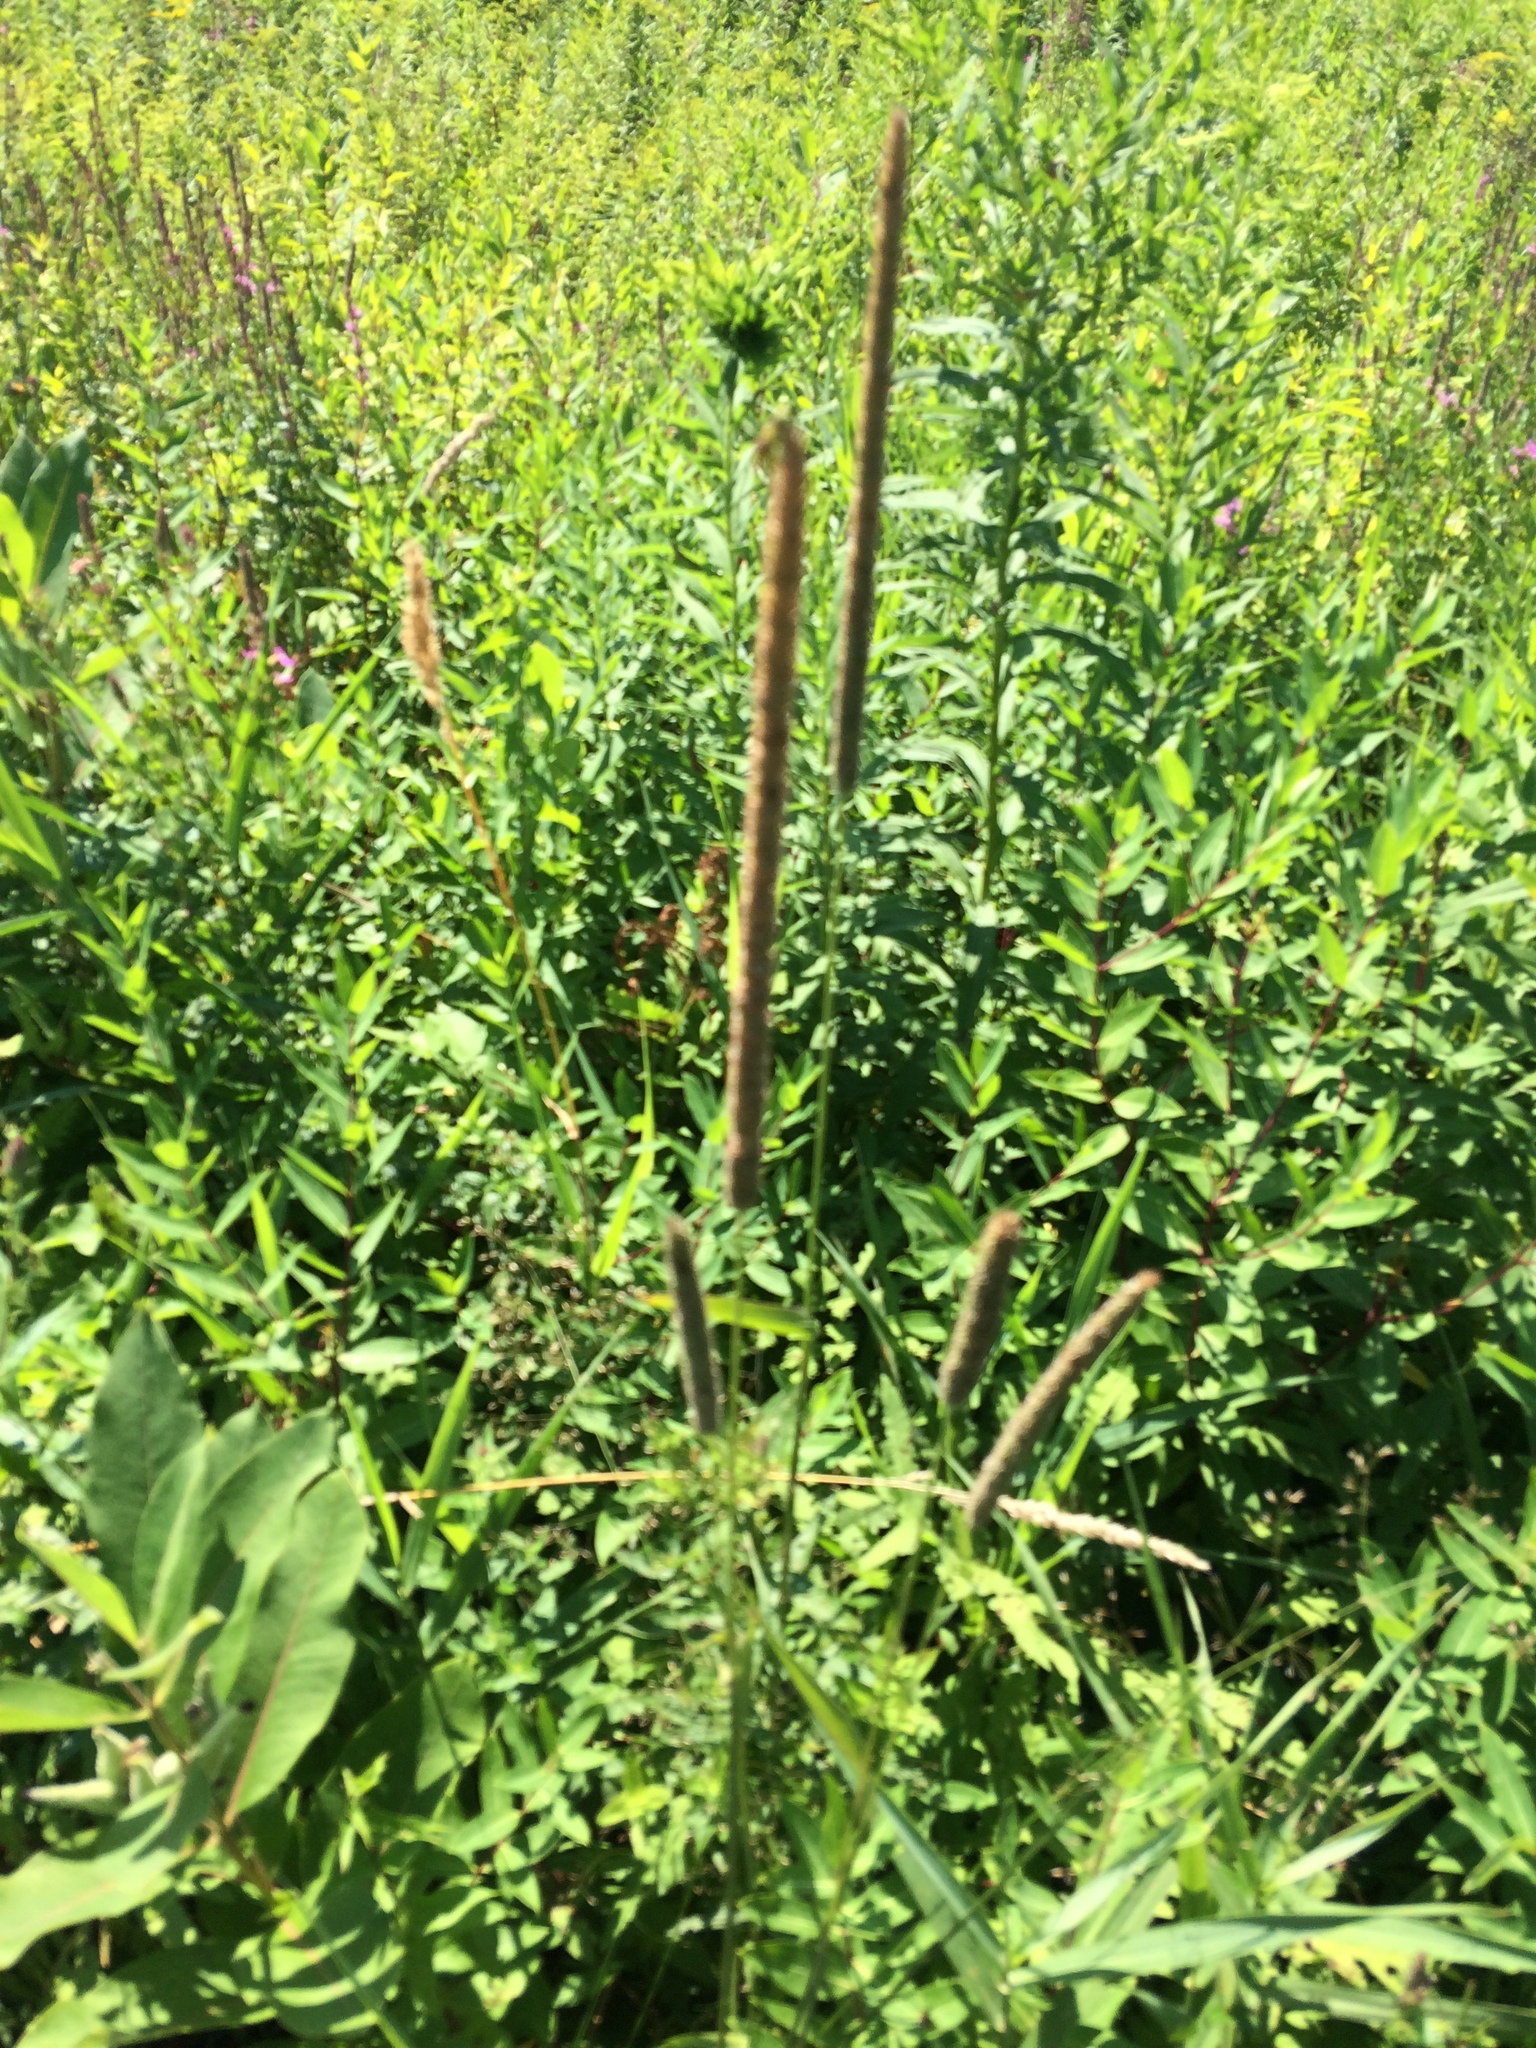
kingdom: Plantae
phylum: Tracheophyta
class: Liliopsida
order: Poales
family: Poaceae
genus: Phleum
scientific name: Phleum pratense
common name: Timothy grass
